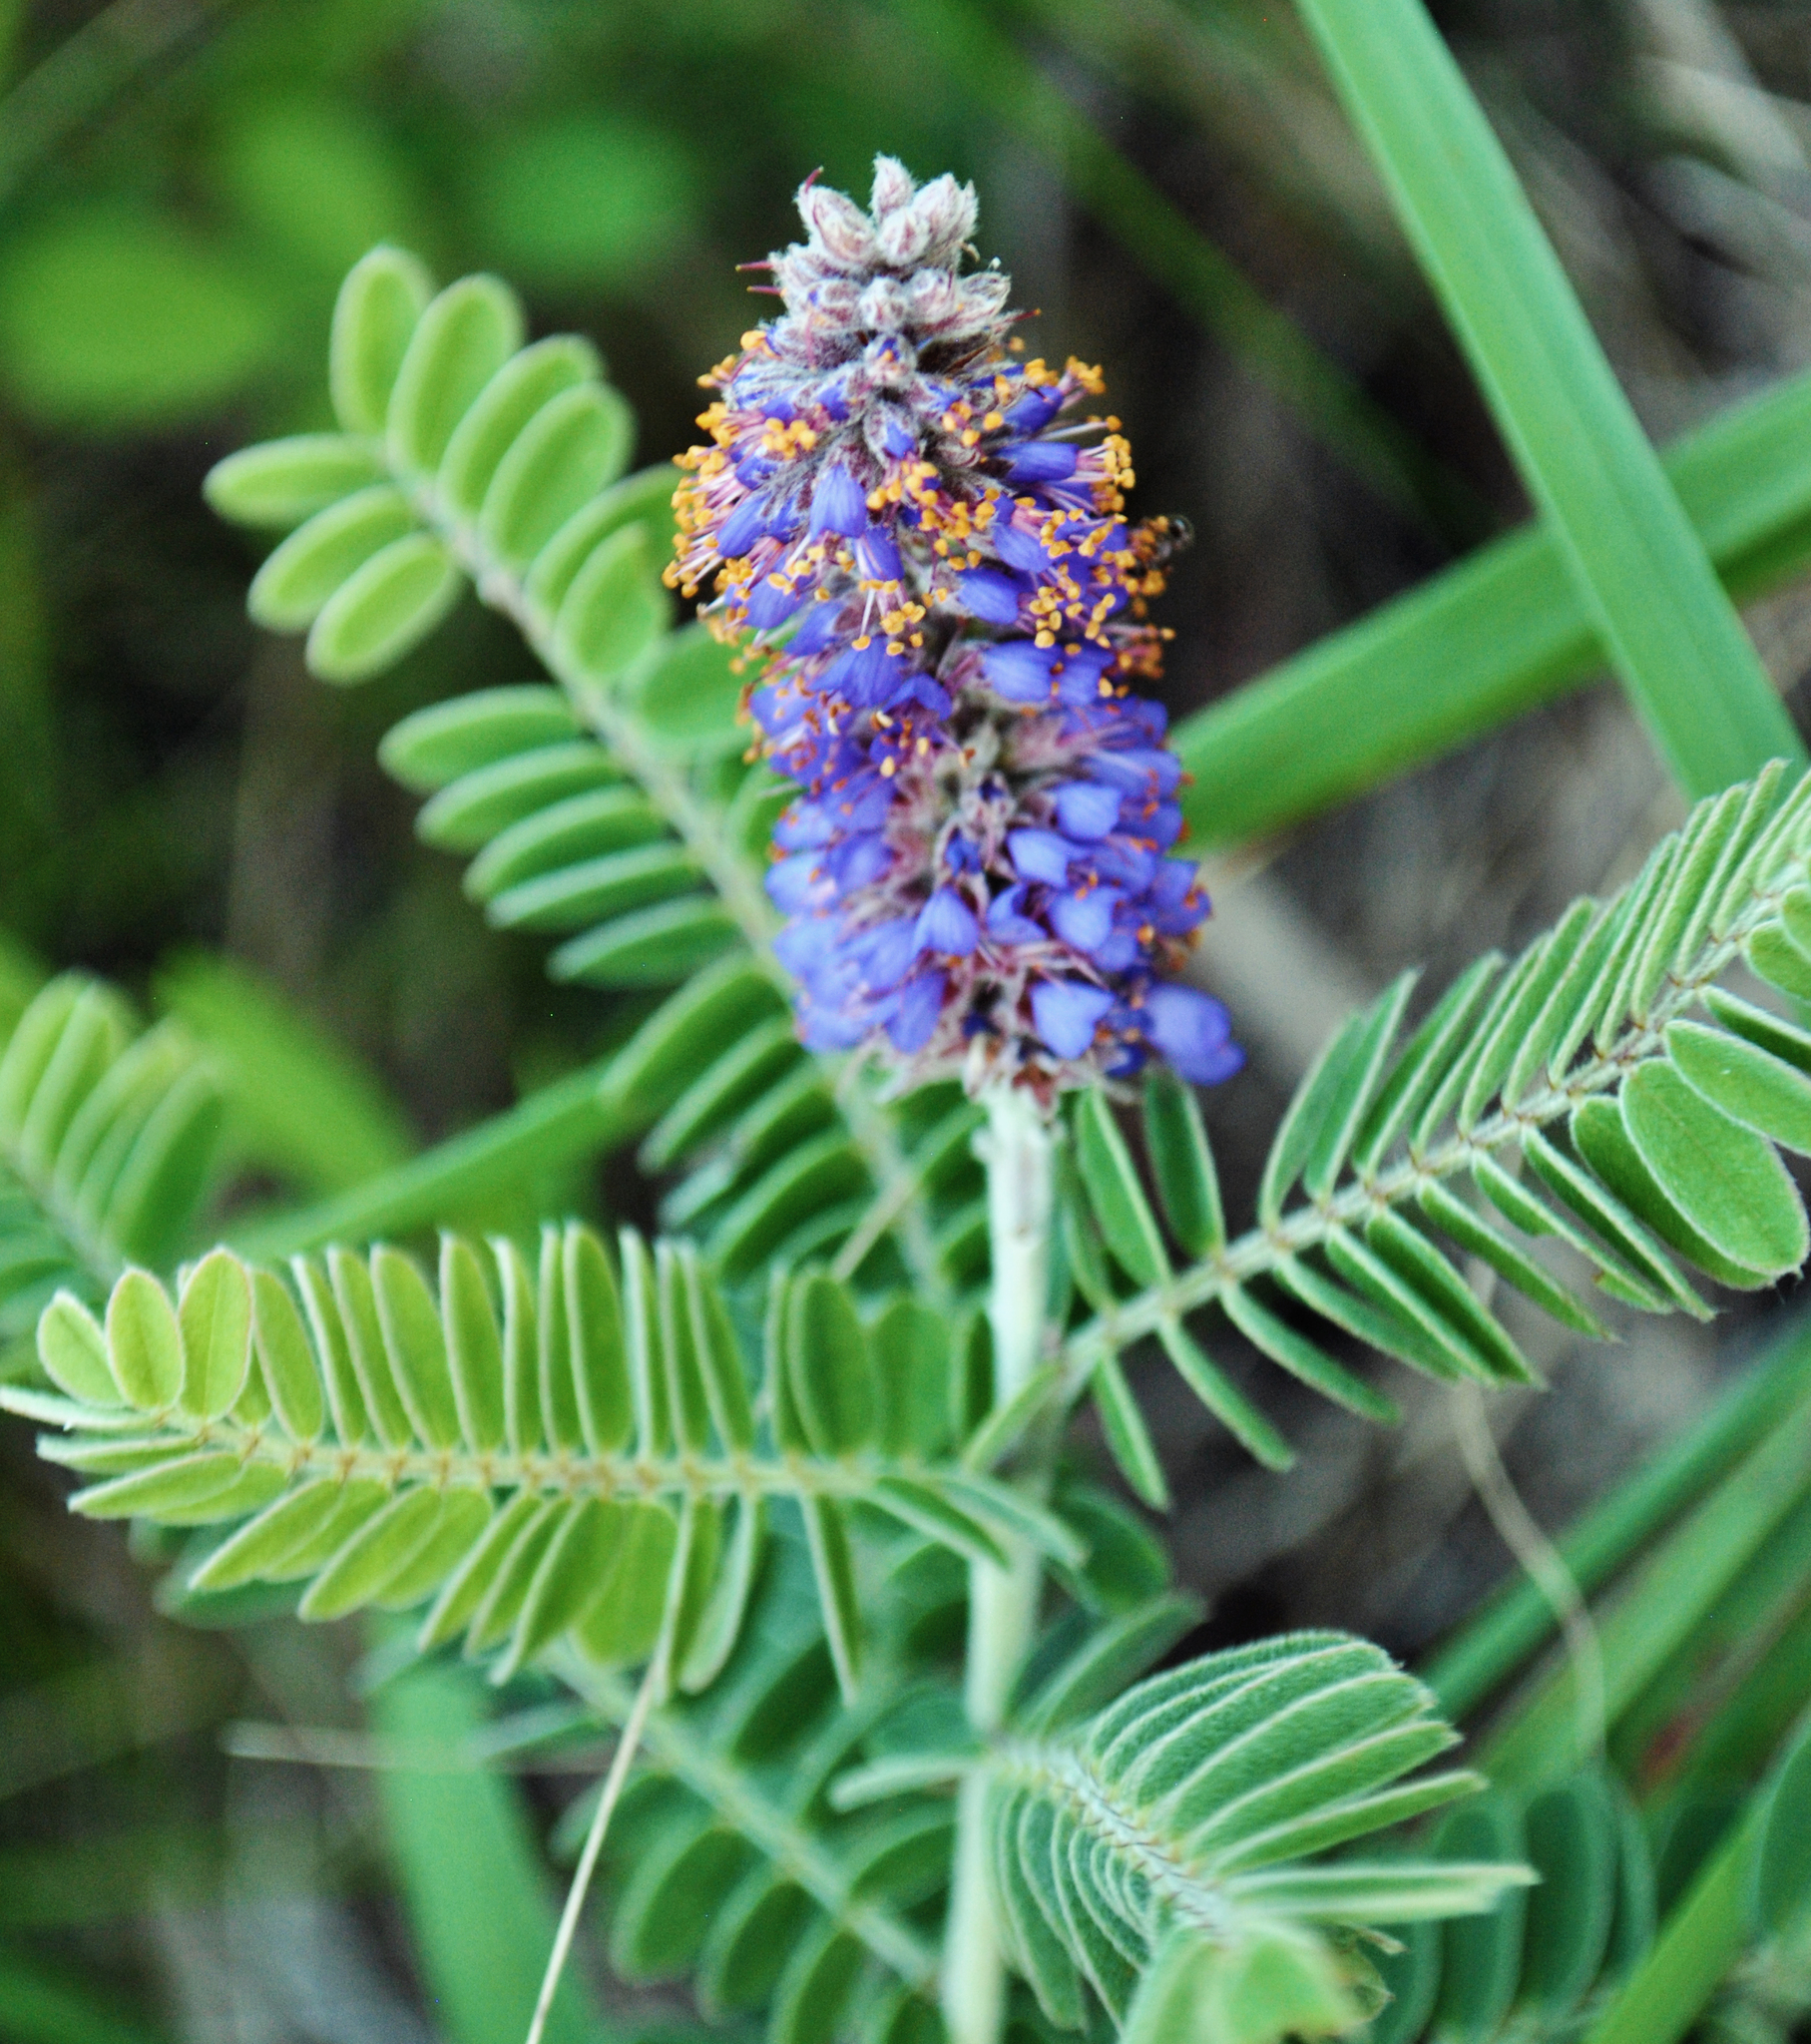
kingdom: Plantae
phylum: Tracheophyta
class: Magnoliopsida
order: Fabales
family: Fabaceae
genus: Amorpha
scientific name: Amorpha canescens
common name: Leadplant
